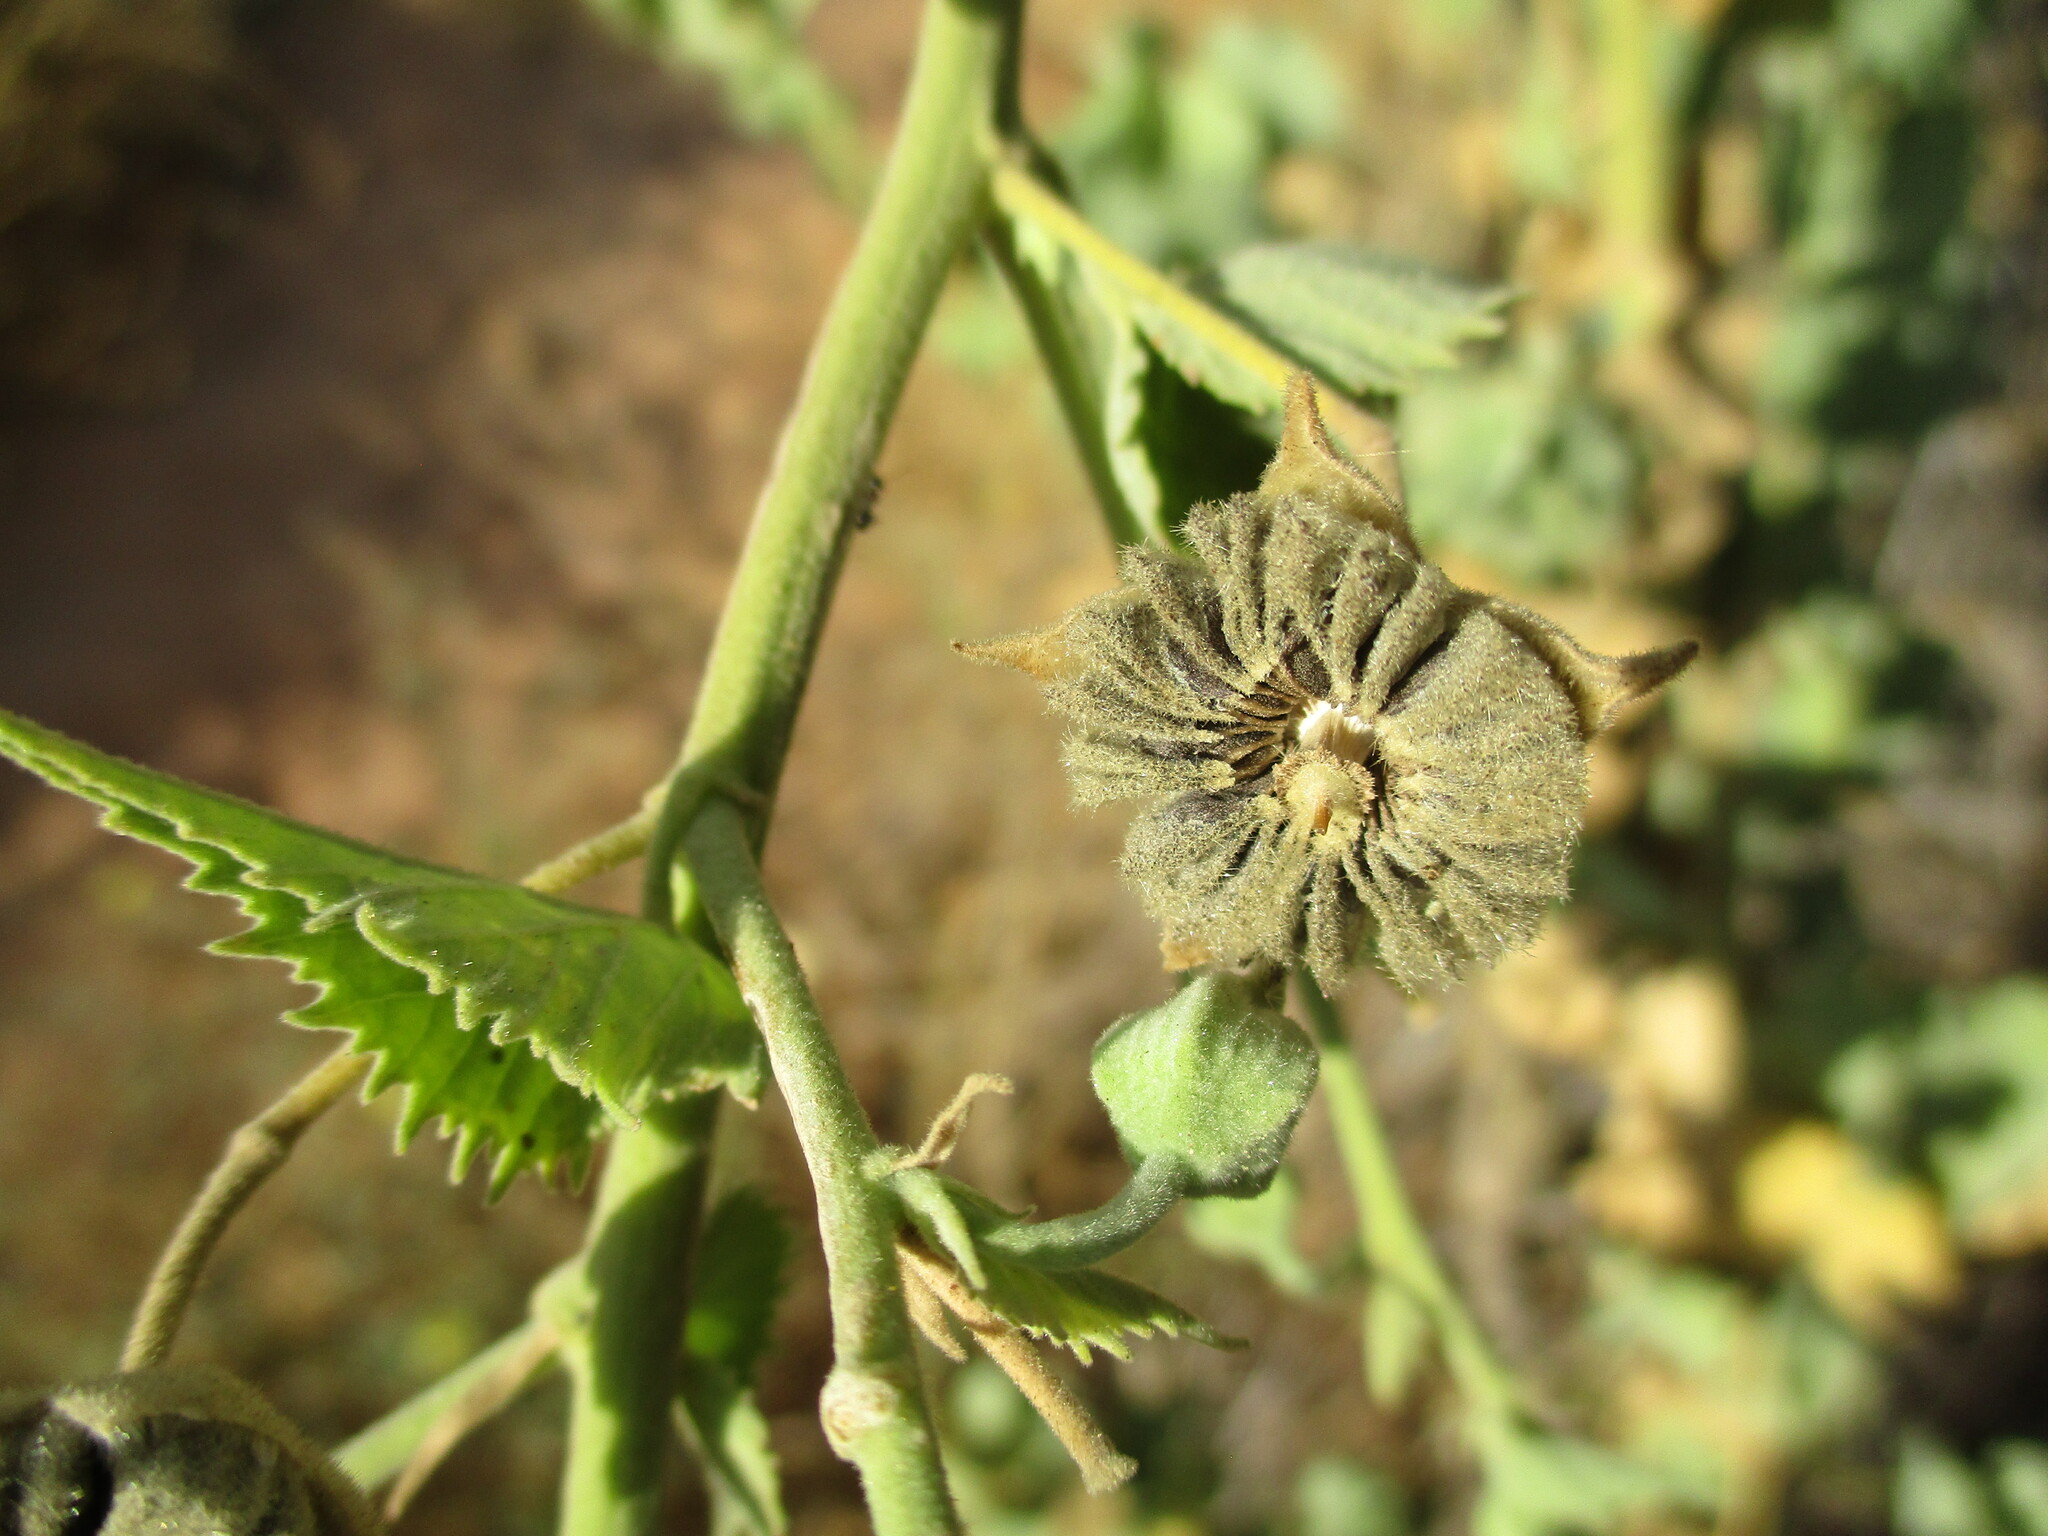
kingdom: Plantae
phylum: Tracheophyta
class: Magnoliopsida
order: Malvales
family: Malvaceae
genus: Abutilon
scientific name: Abutilon pycnodon
